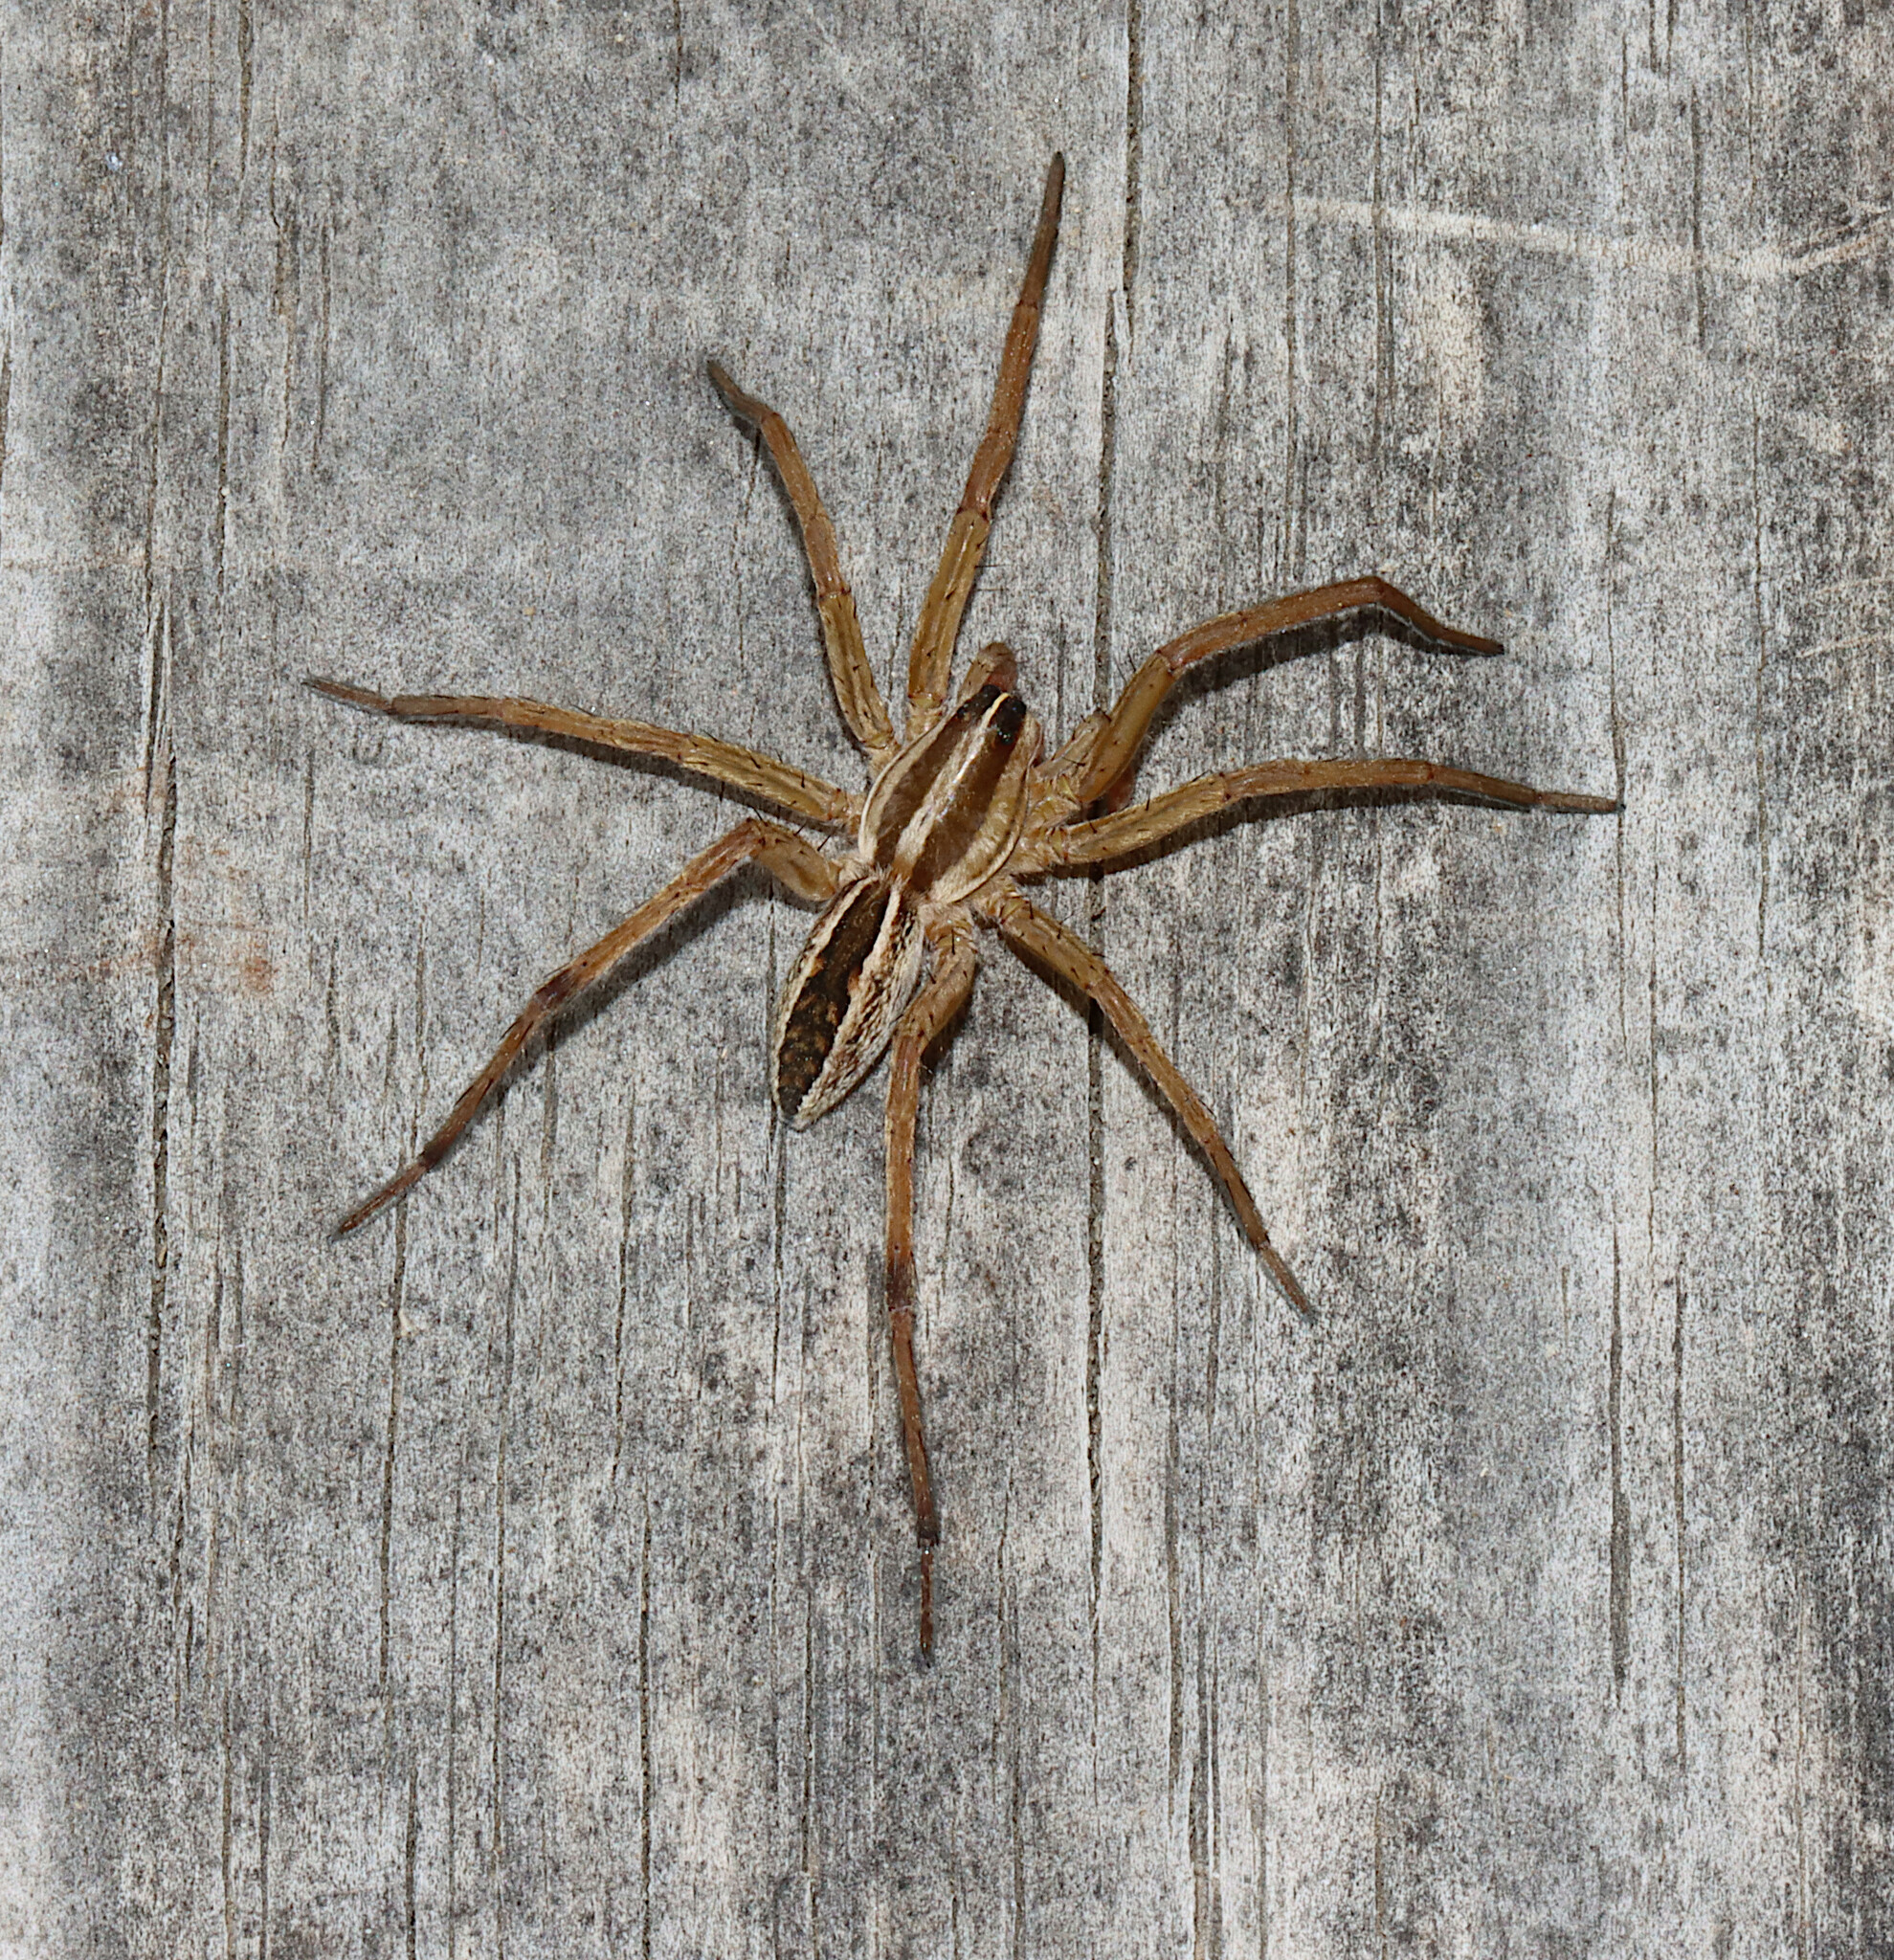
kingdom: Animalia
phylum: Arthropoda
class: Arachnida
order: Araneae
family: Lycosidae
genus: Rabidosa
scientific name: Rabidosa rabida
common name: Rabid wolf spider
